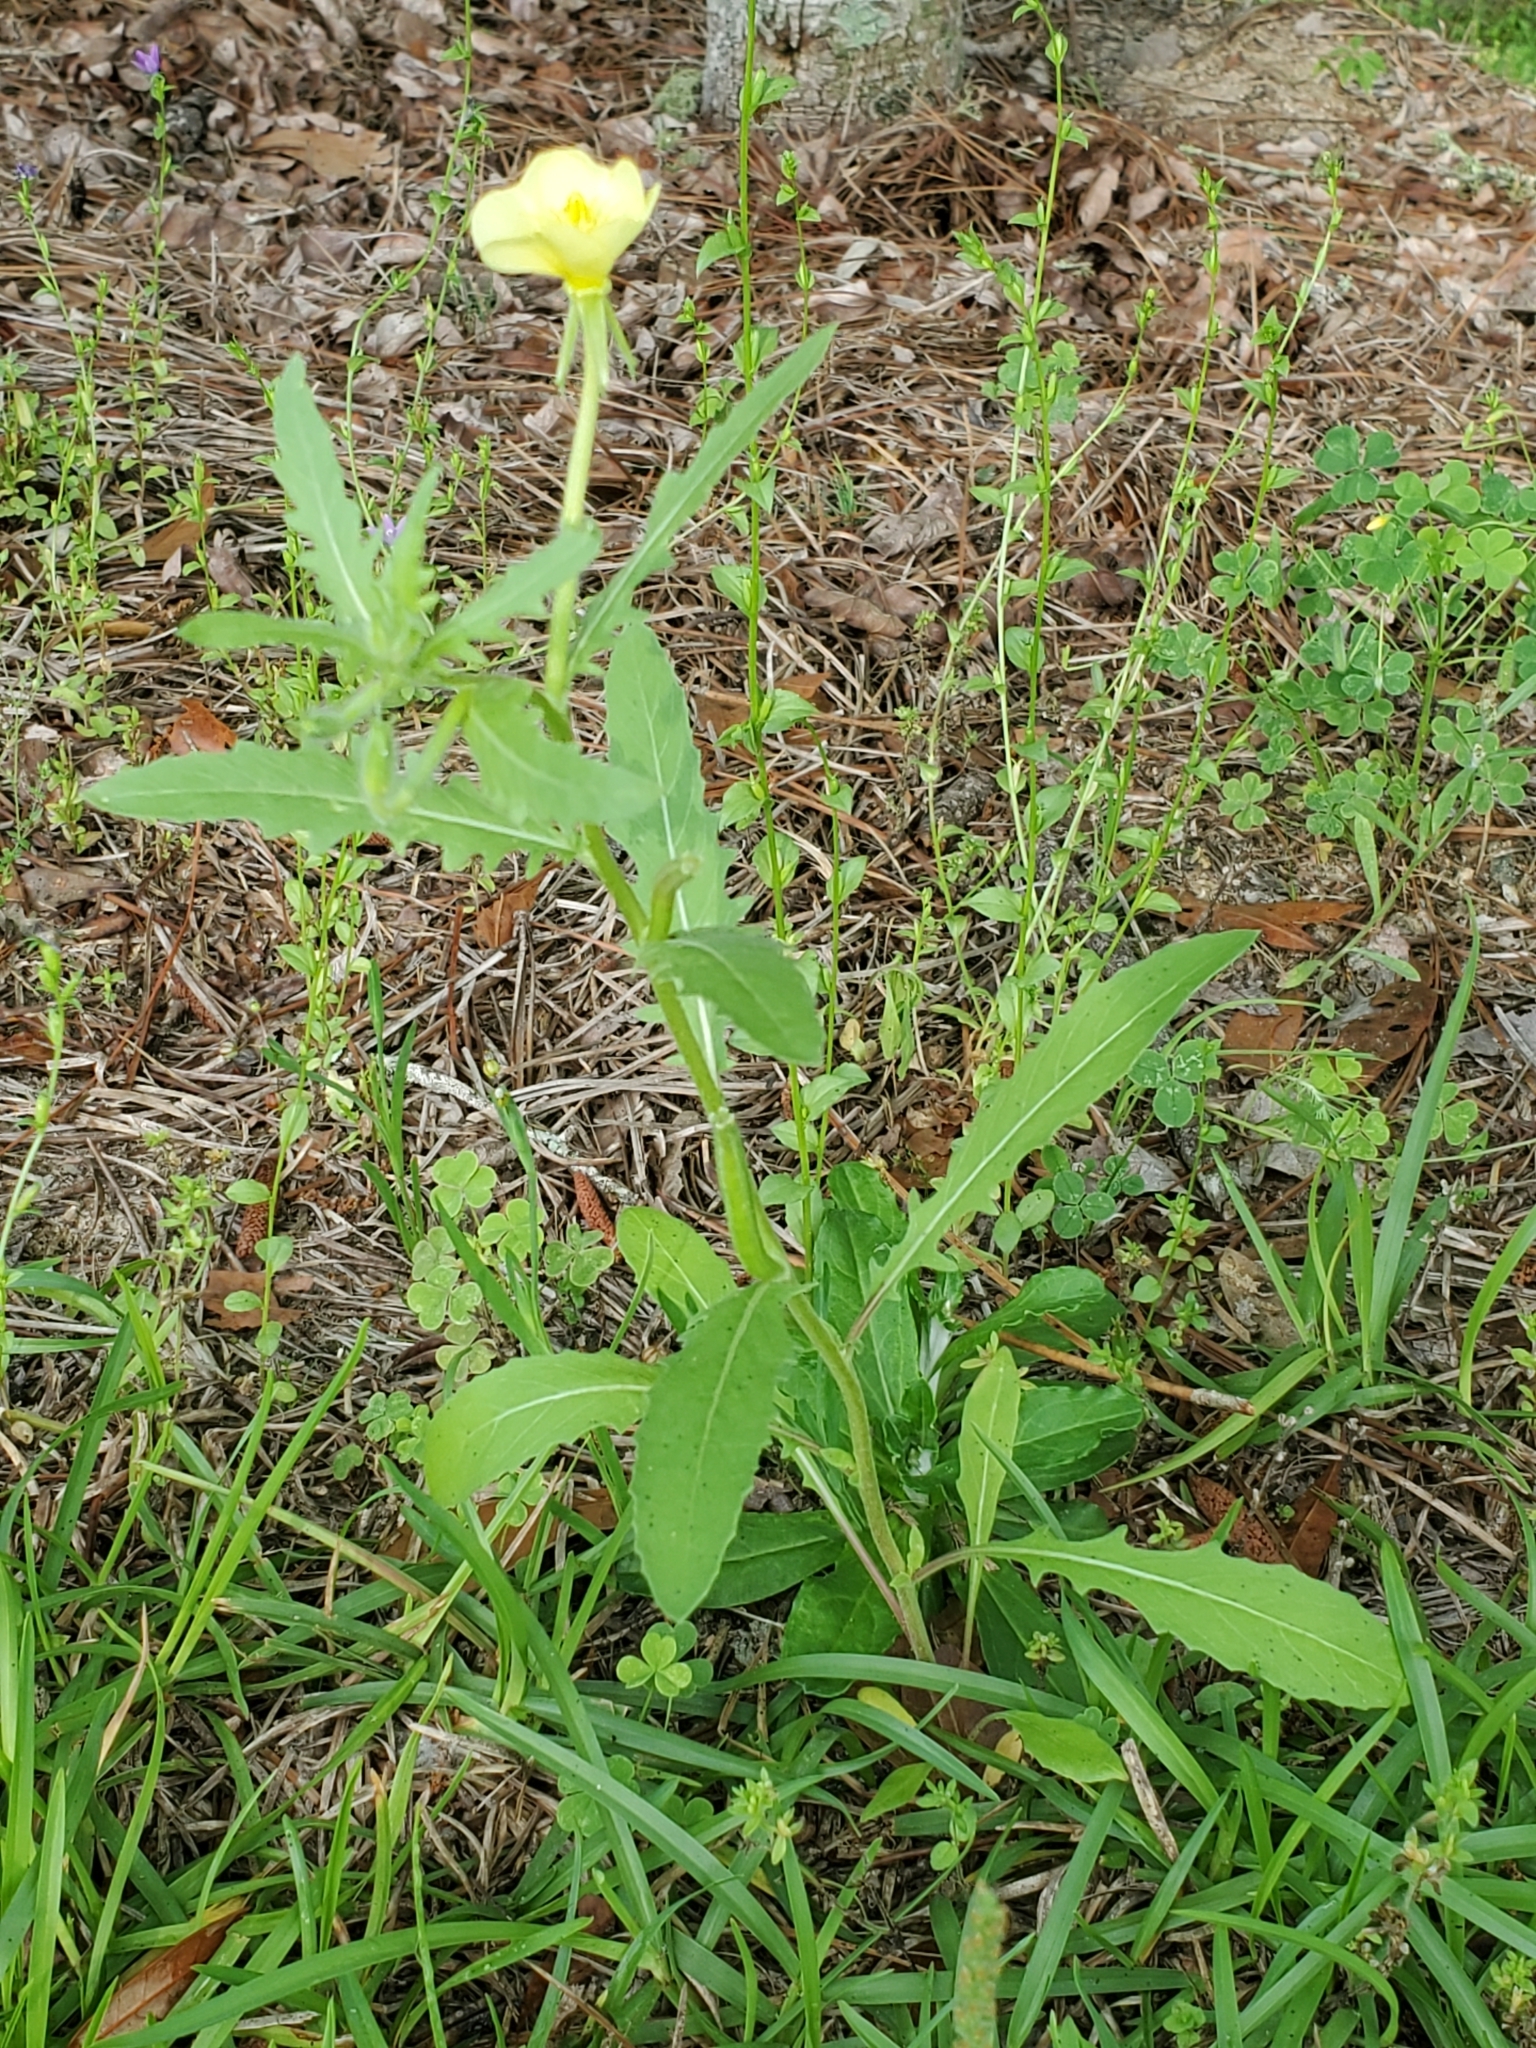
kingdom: Plantae
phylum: Tracheophyta
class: Magnoliopsida
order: Myrtales
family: Onagraceae
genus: Oenothera
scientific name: Oenothera laciniata
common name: Cut-leaved evening-primrose
